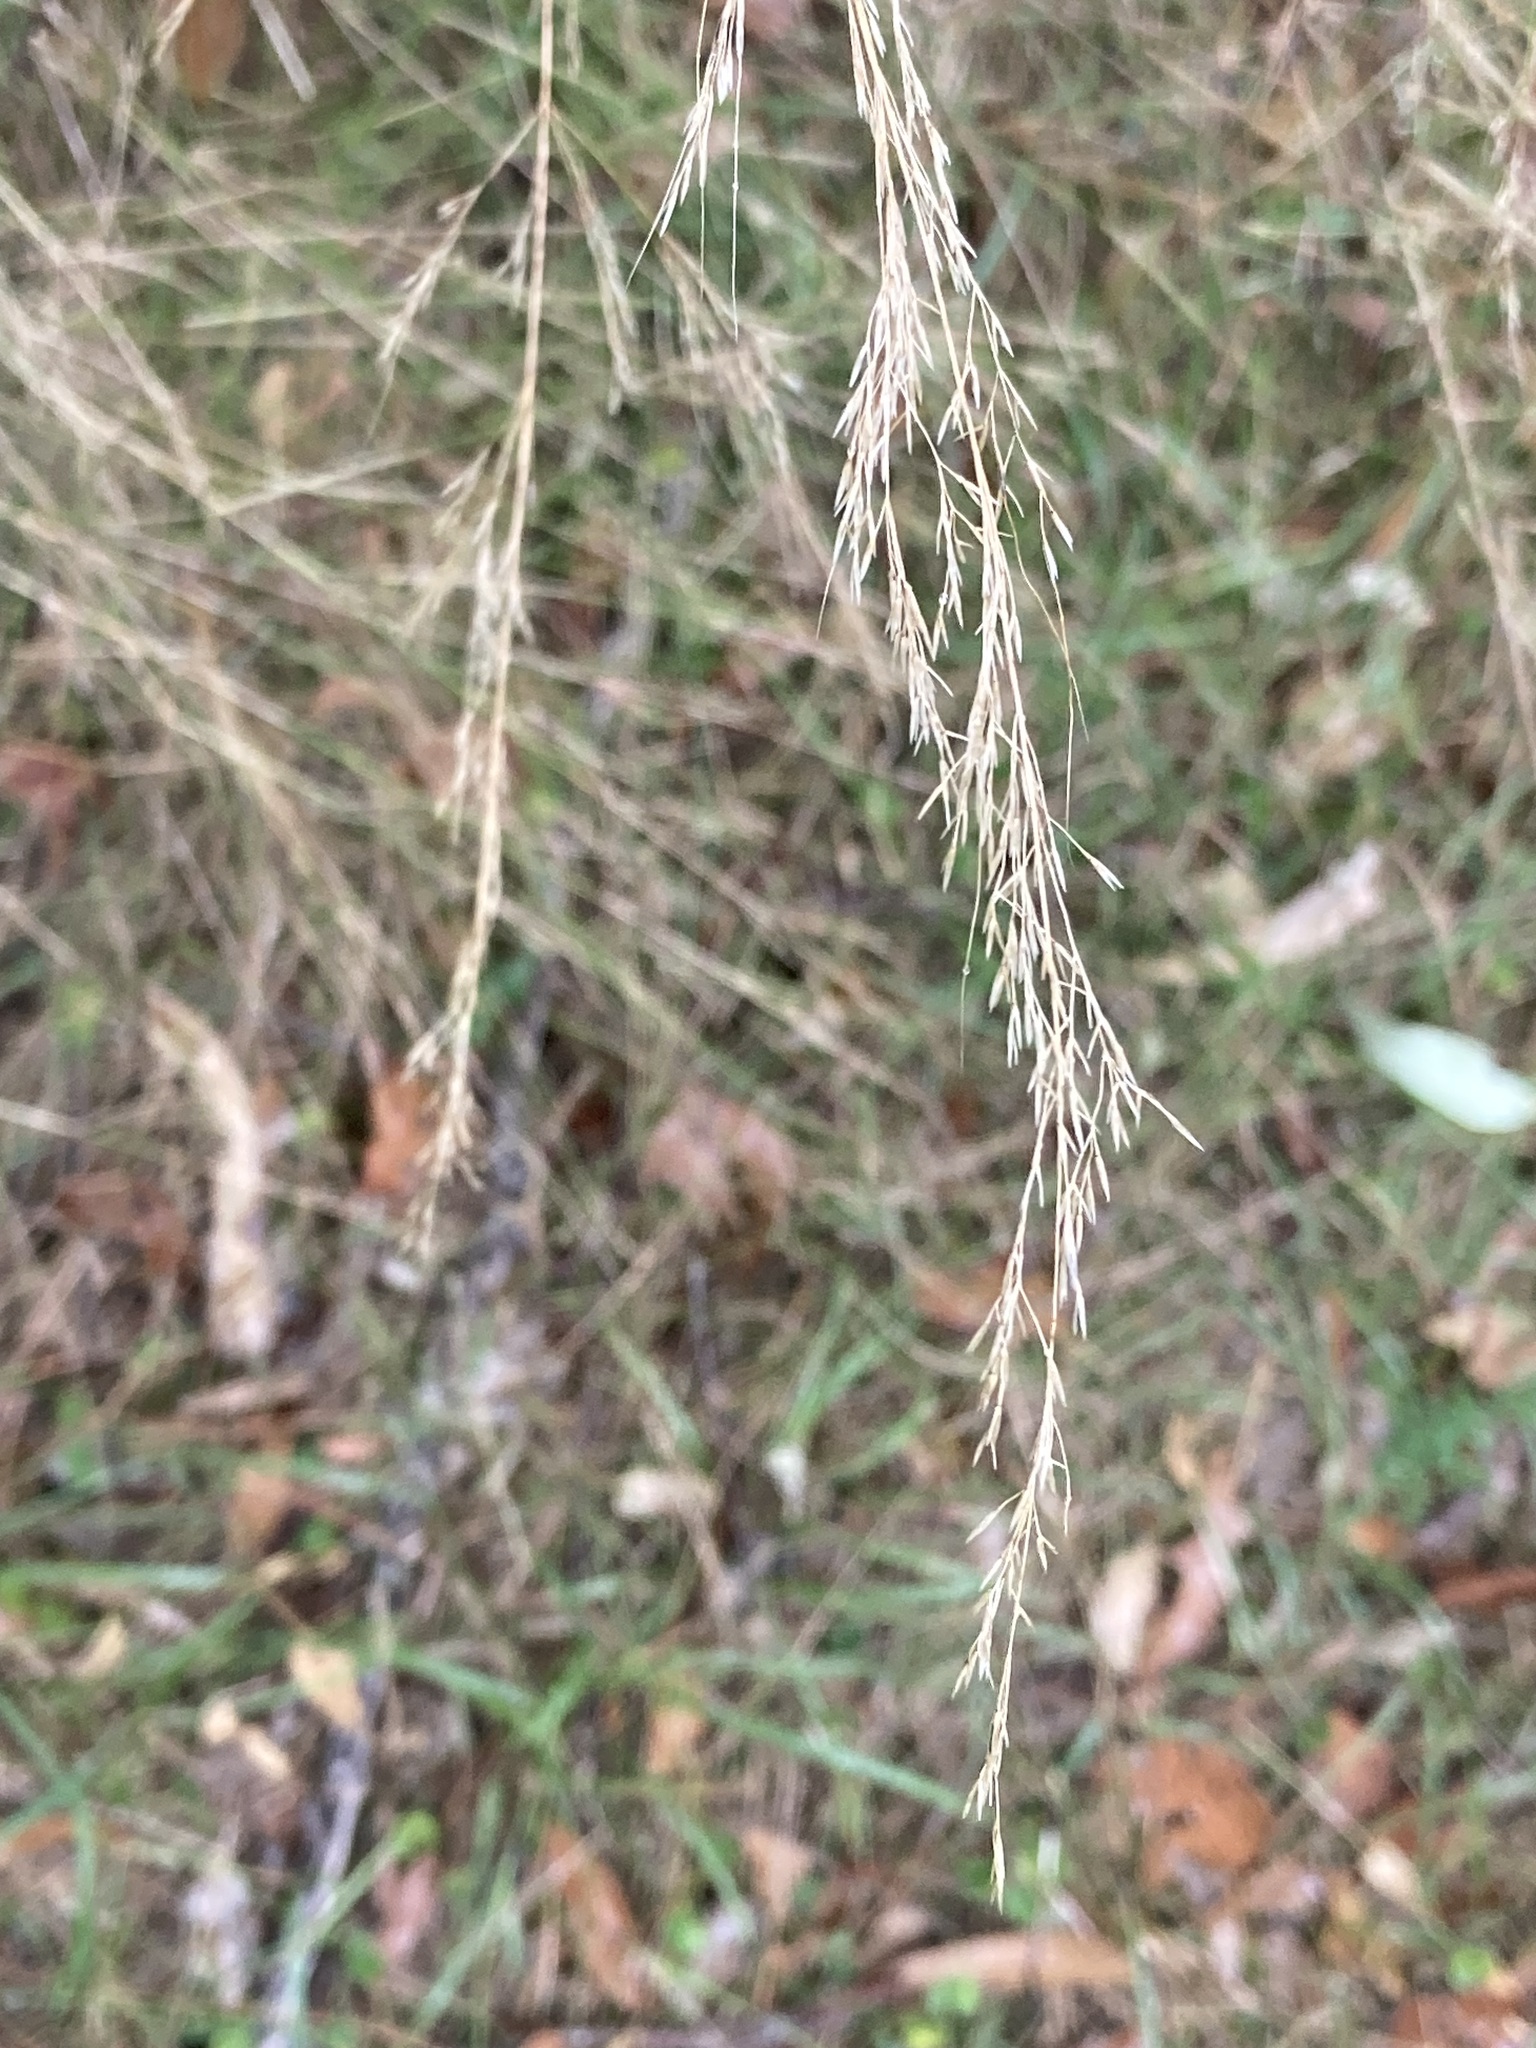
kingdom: Plantae
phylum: Tracheophyta
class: Liliopsida
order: Poales
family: Poaceae
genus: Austrostipa
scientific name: Austrostipa ramosissima
